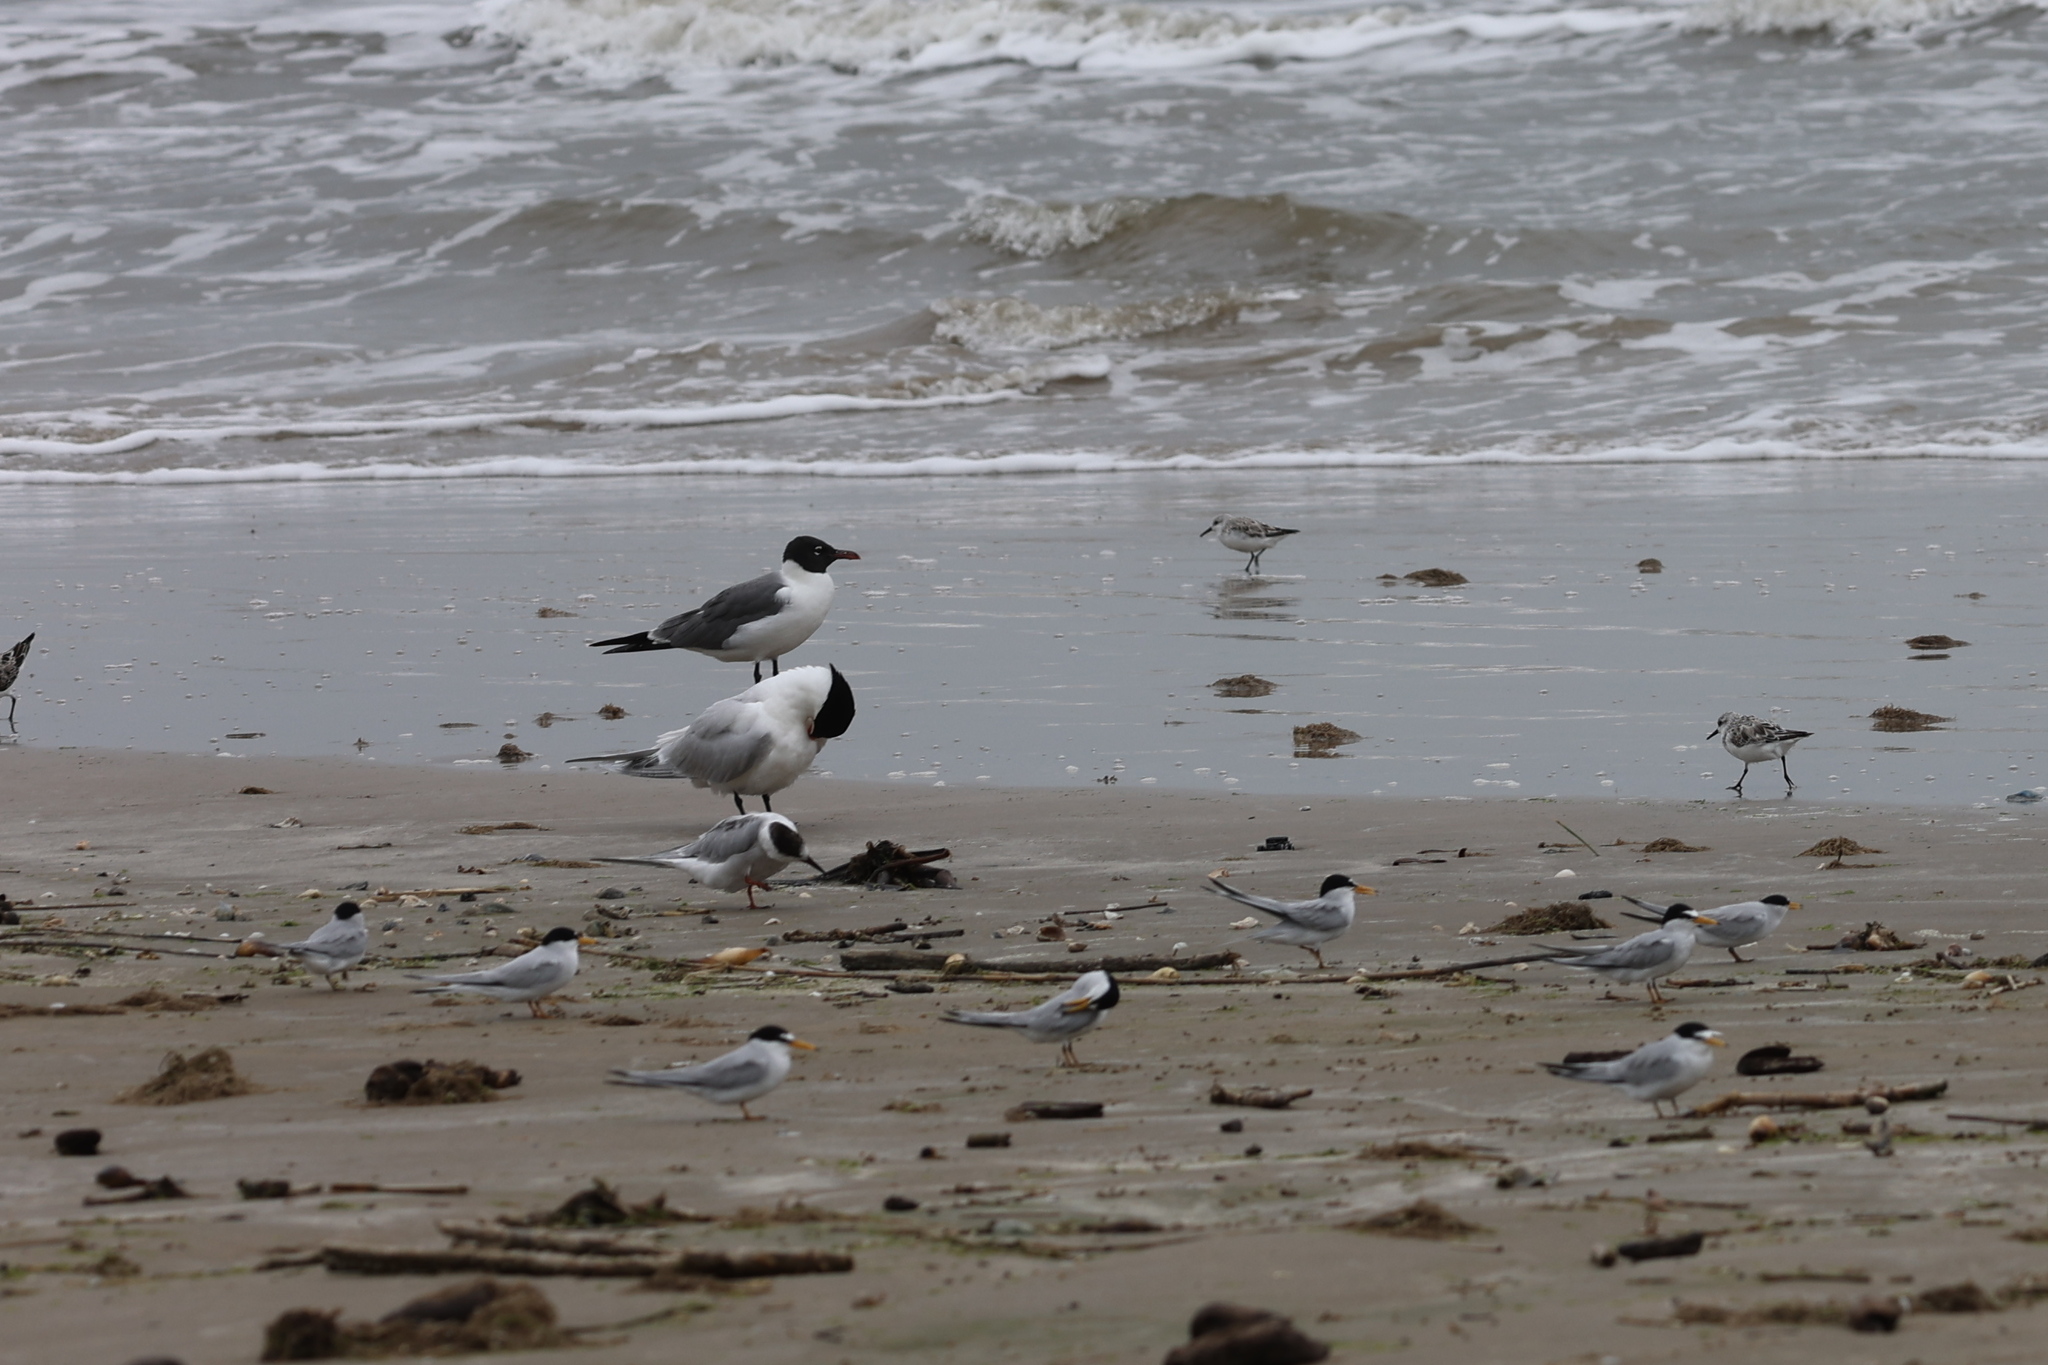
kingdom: Animalia
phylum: Chordata
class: Aves
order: Charadriiformes
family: Laridae
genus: Leucophaeus
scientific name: Leucophaeus atricilla
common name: Laughing gull
